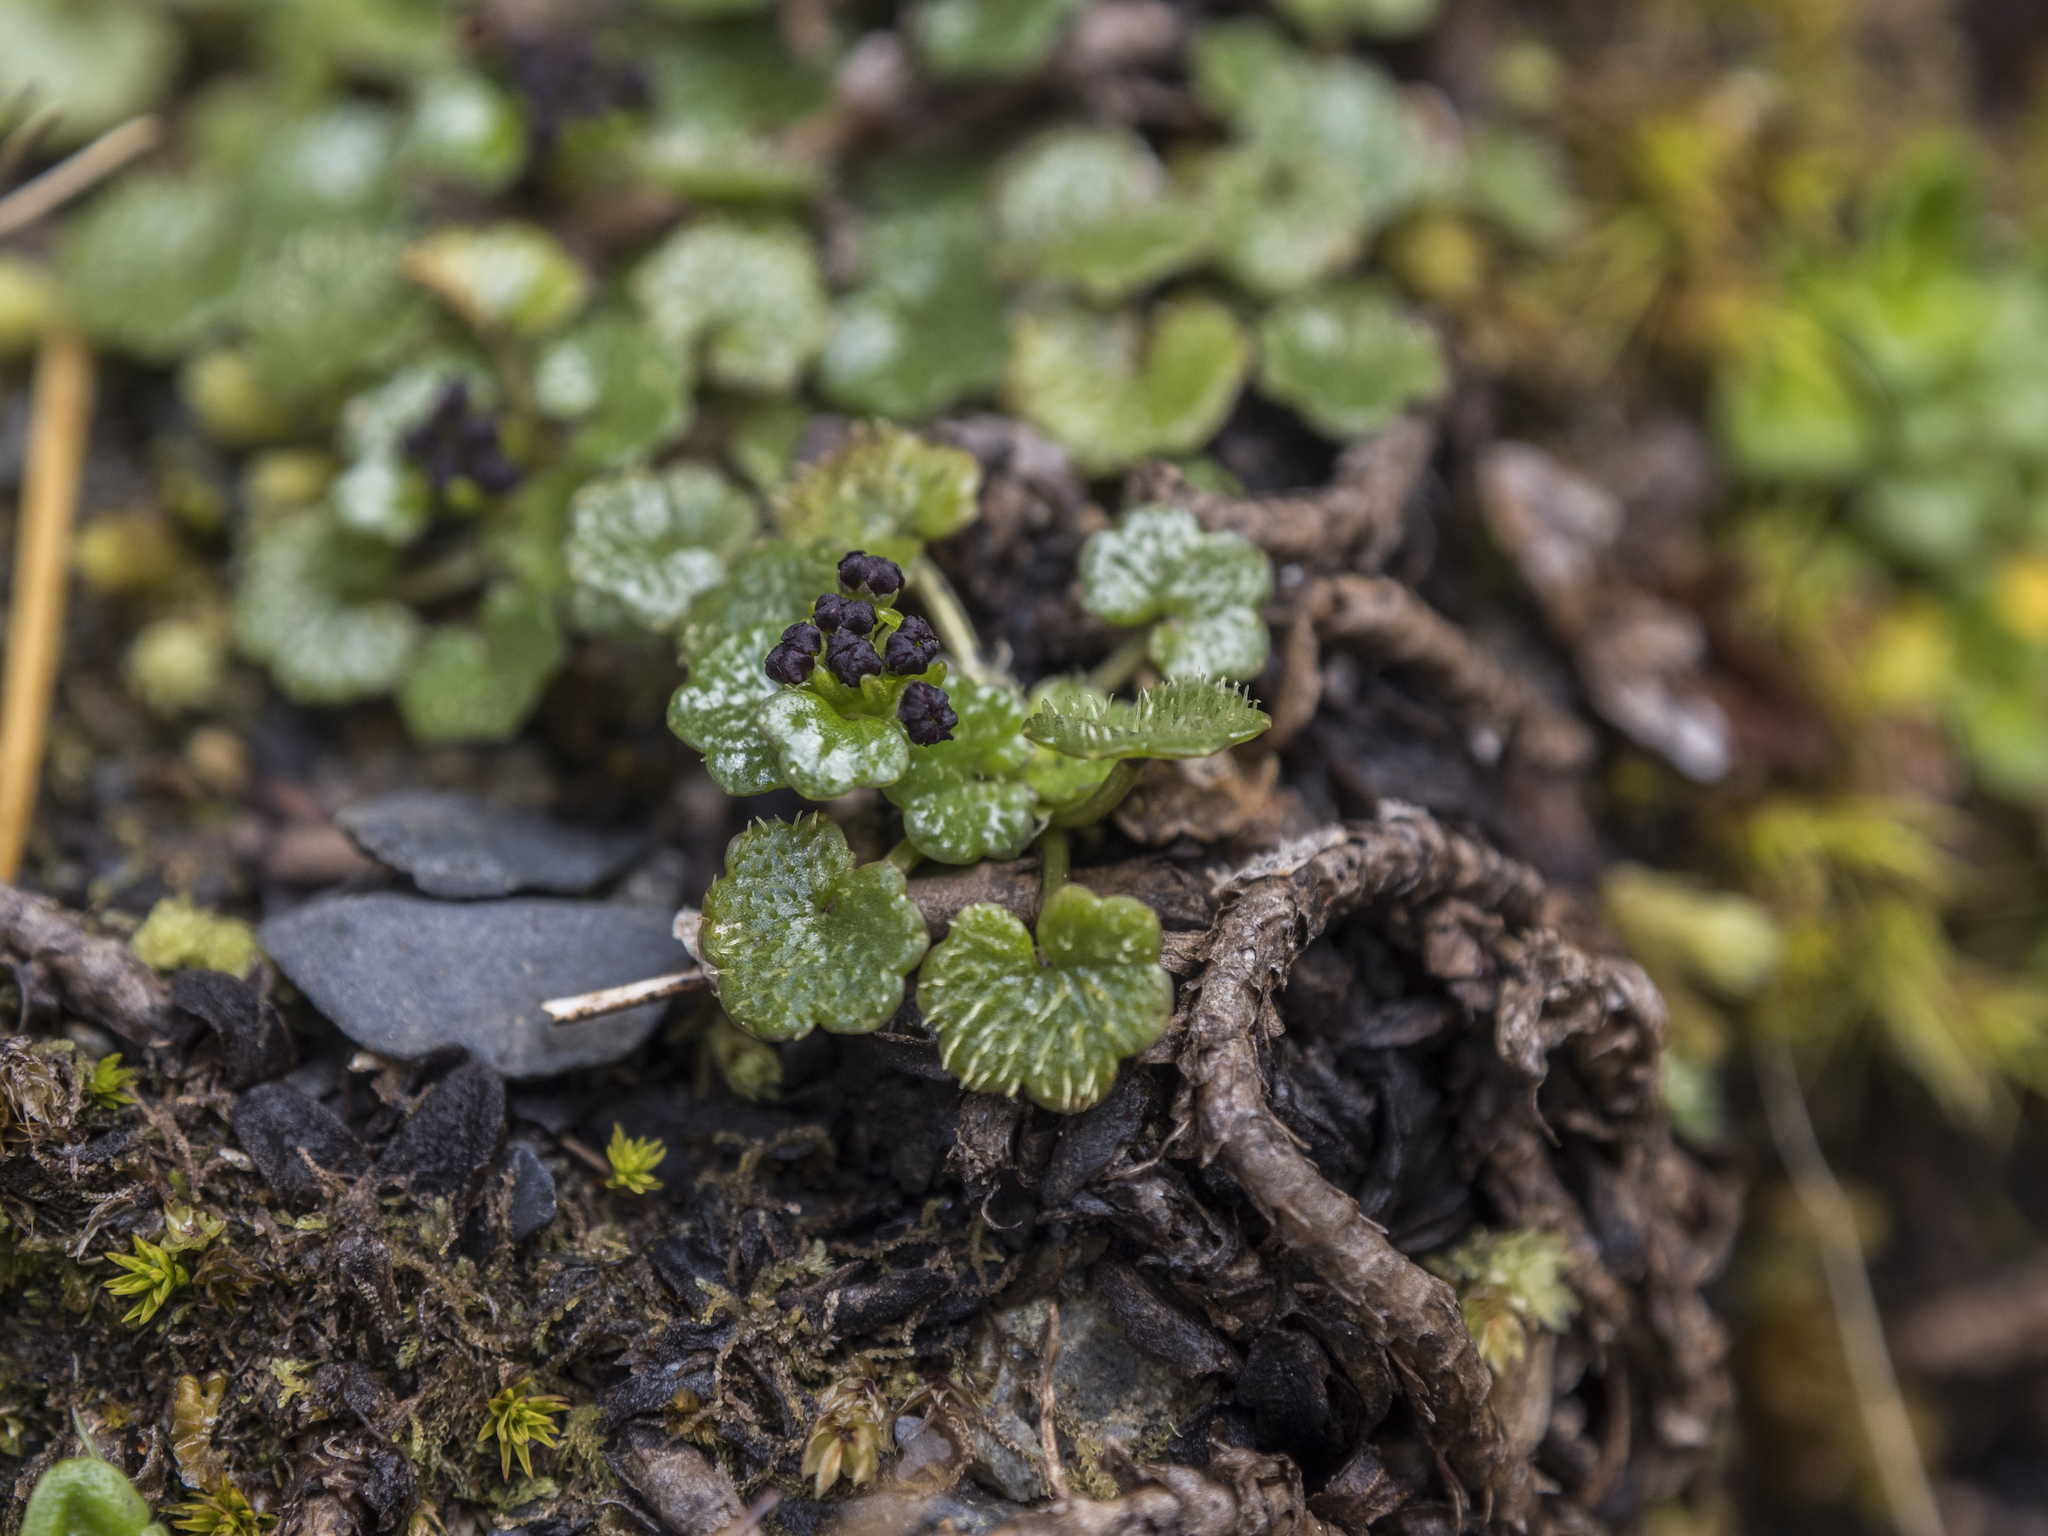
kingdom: Plantae
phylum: Tracheophyta
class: Magnoliopsida
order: Apiales
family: Apiaceae
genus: Azorella
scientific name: Azorella haastii
